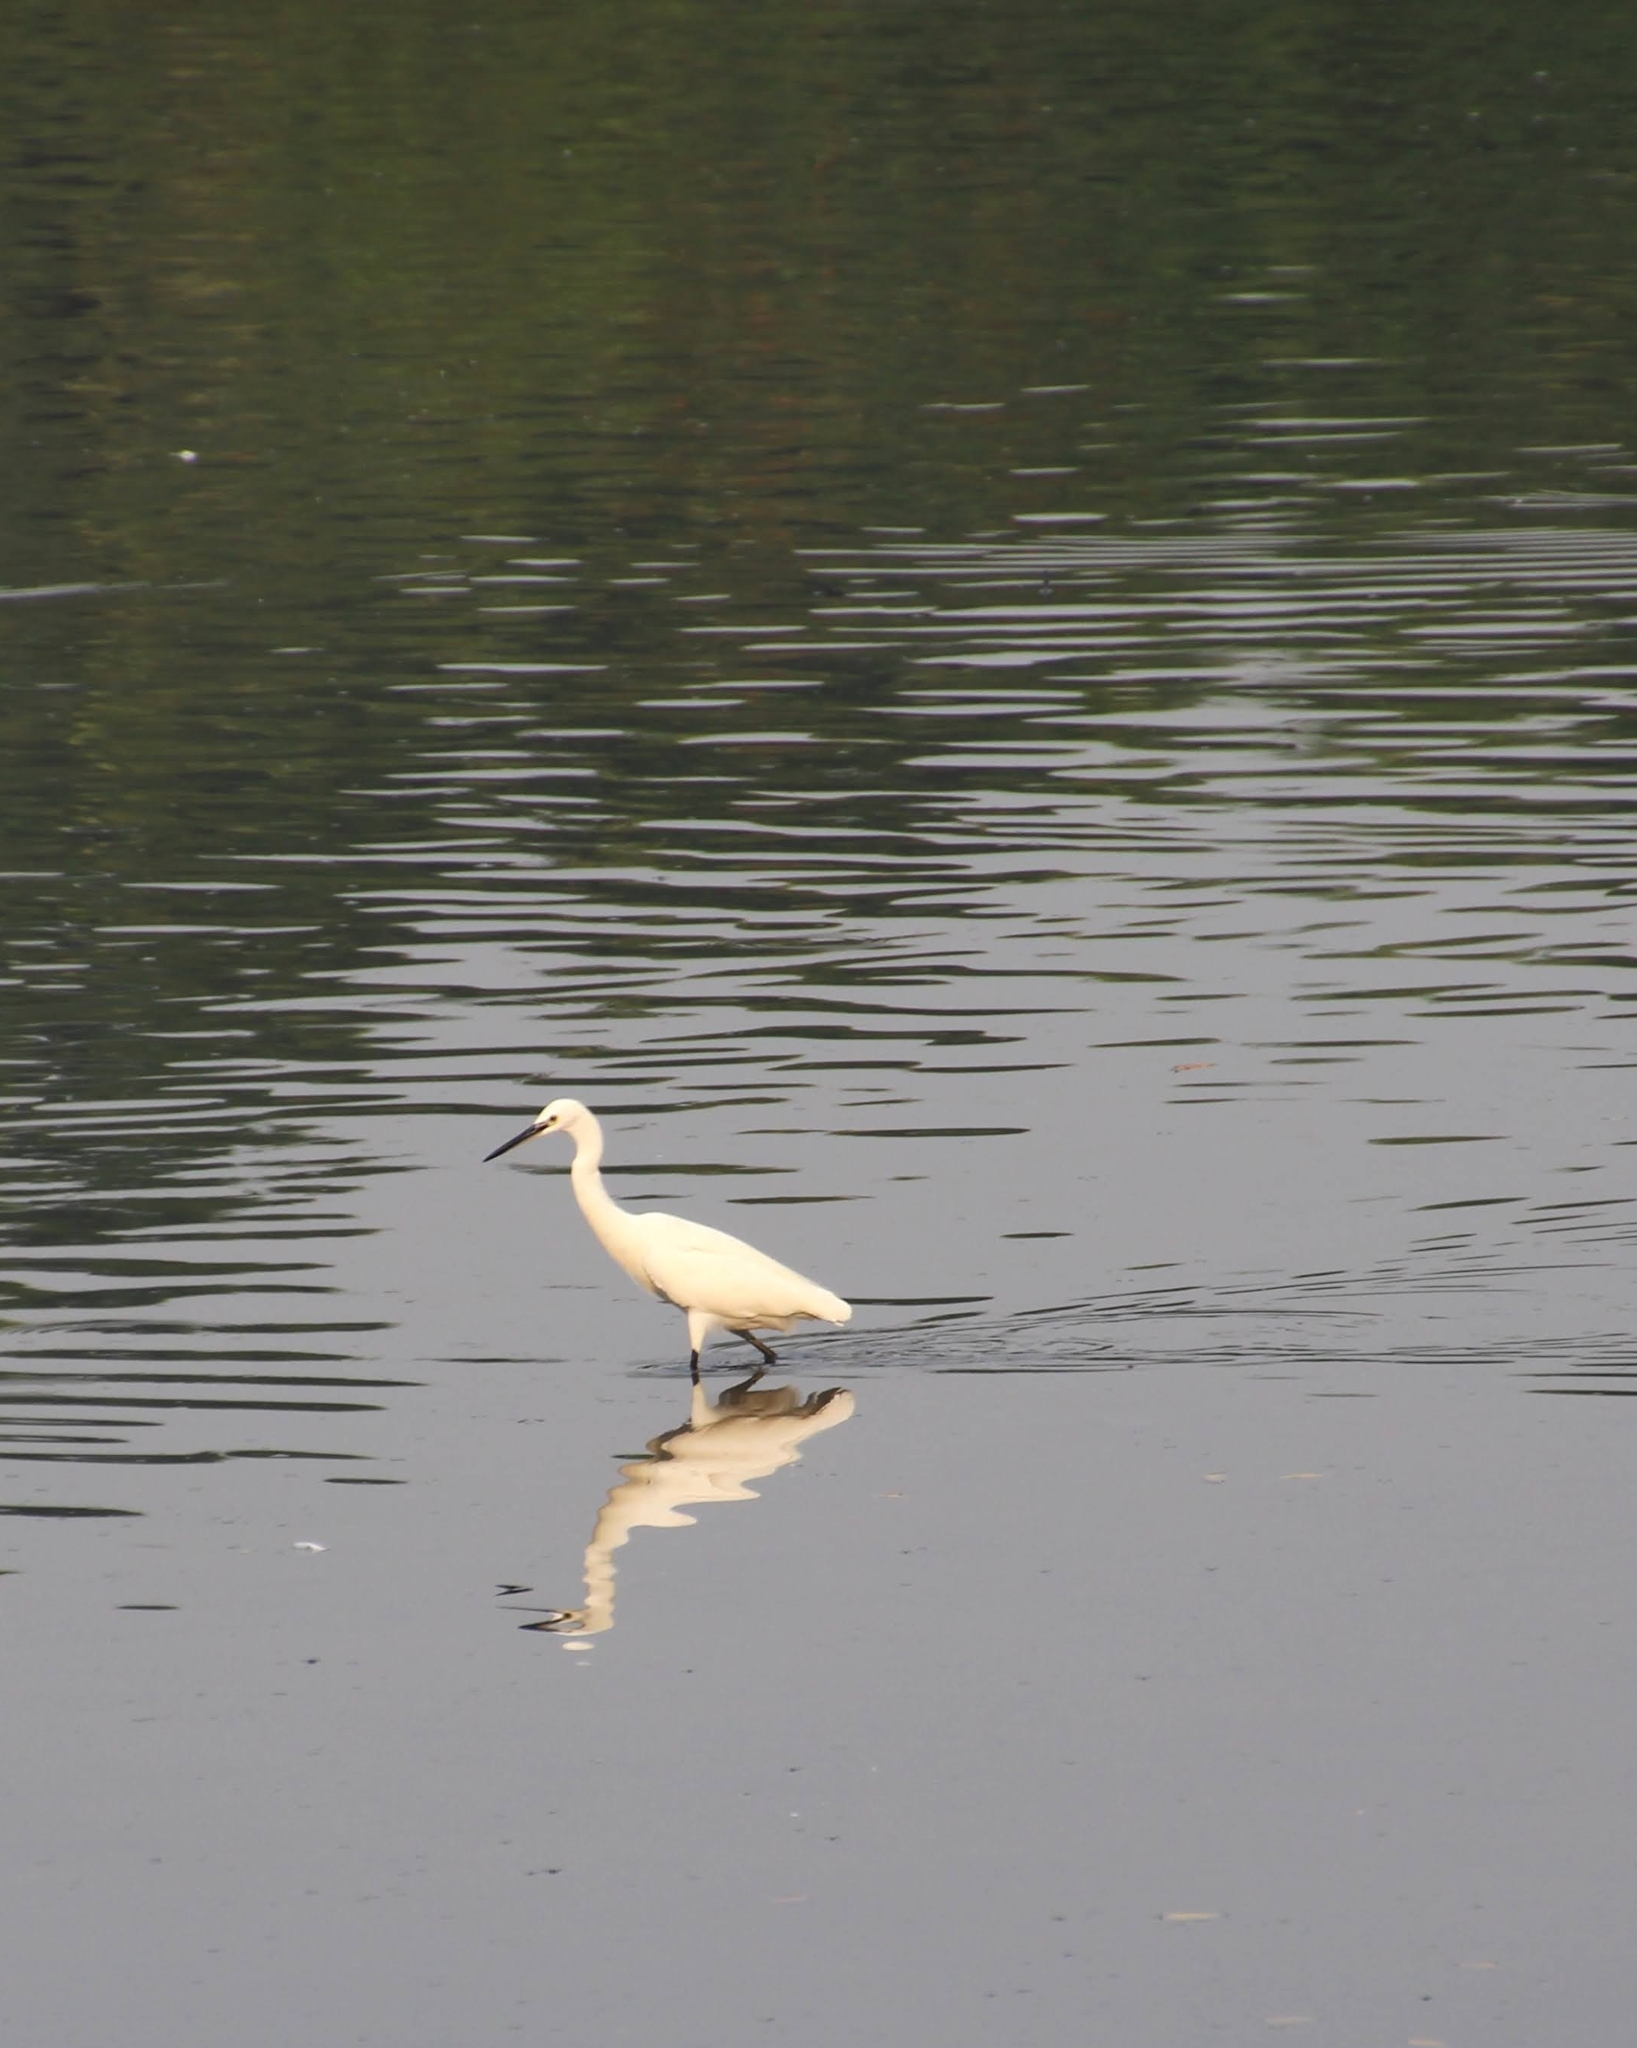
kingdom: Animalia
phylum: Chordata
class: Aves
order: Pelecaniformes
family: Ardeidae
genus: Egretta
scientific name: Egretta garzetta
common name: Little egret
